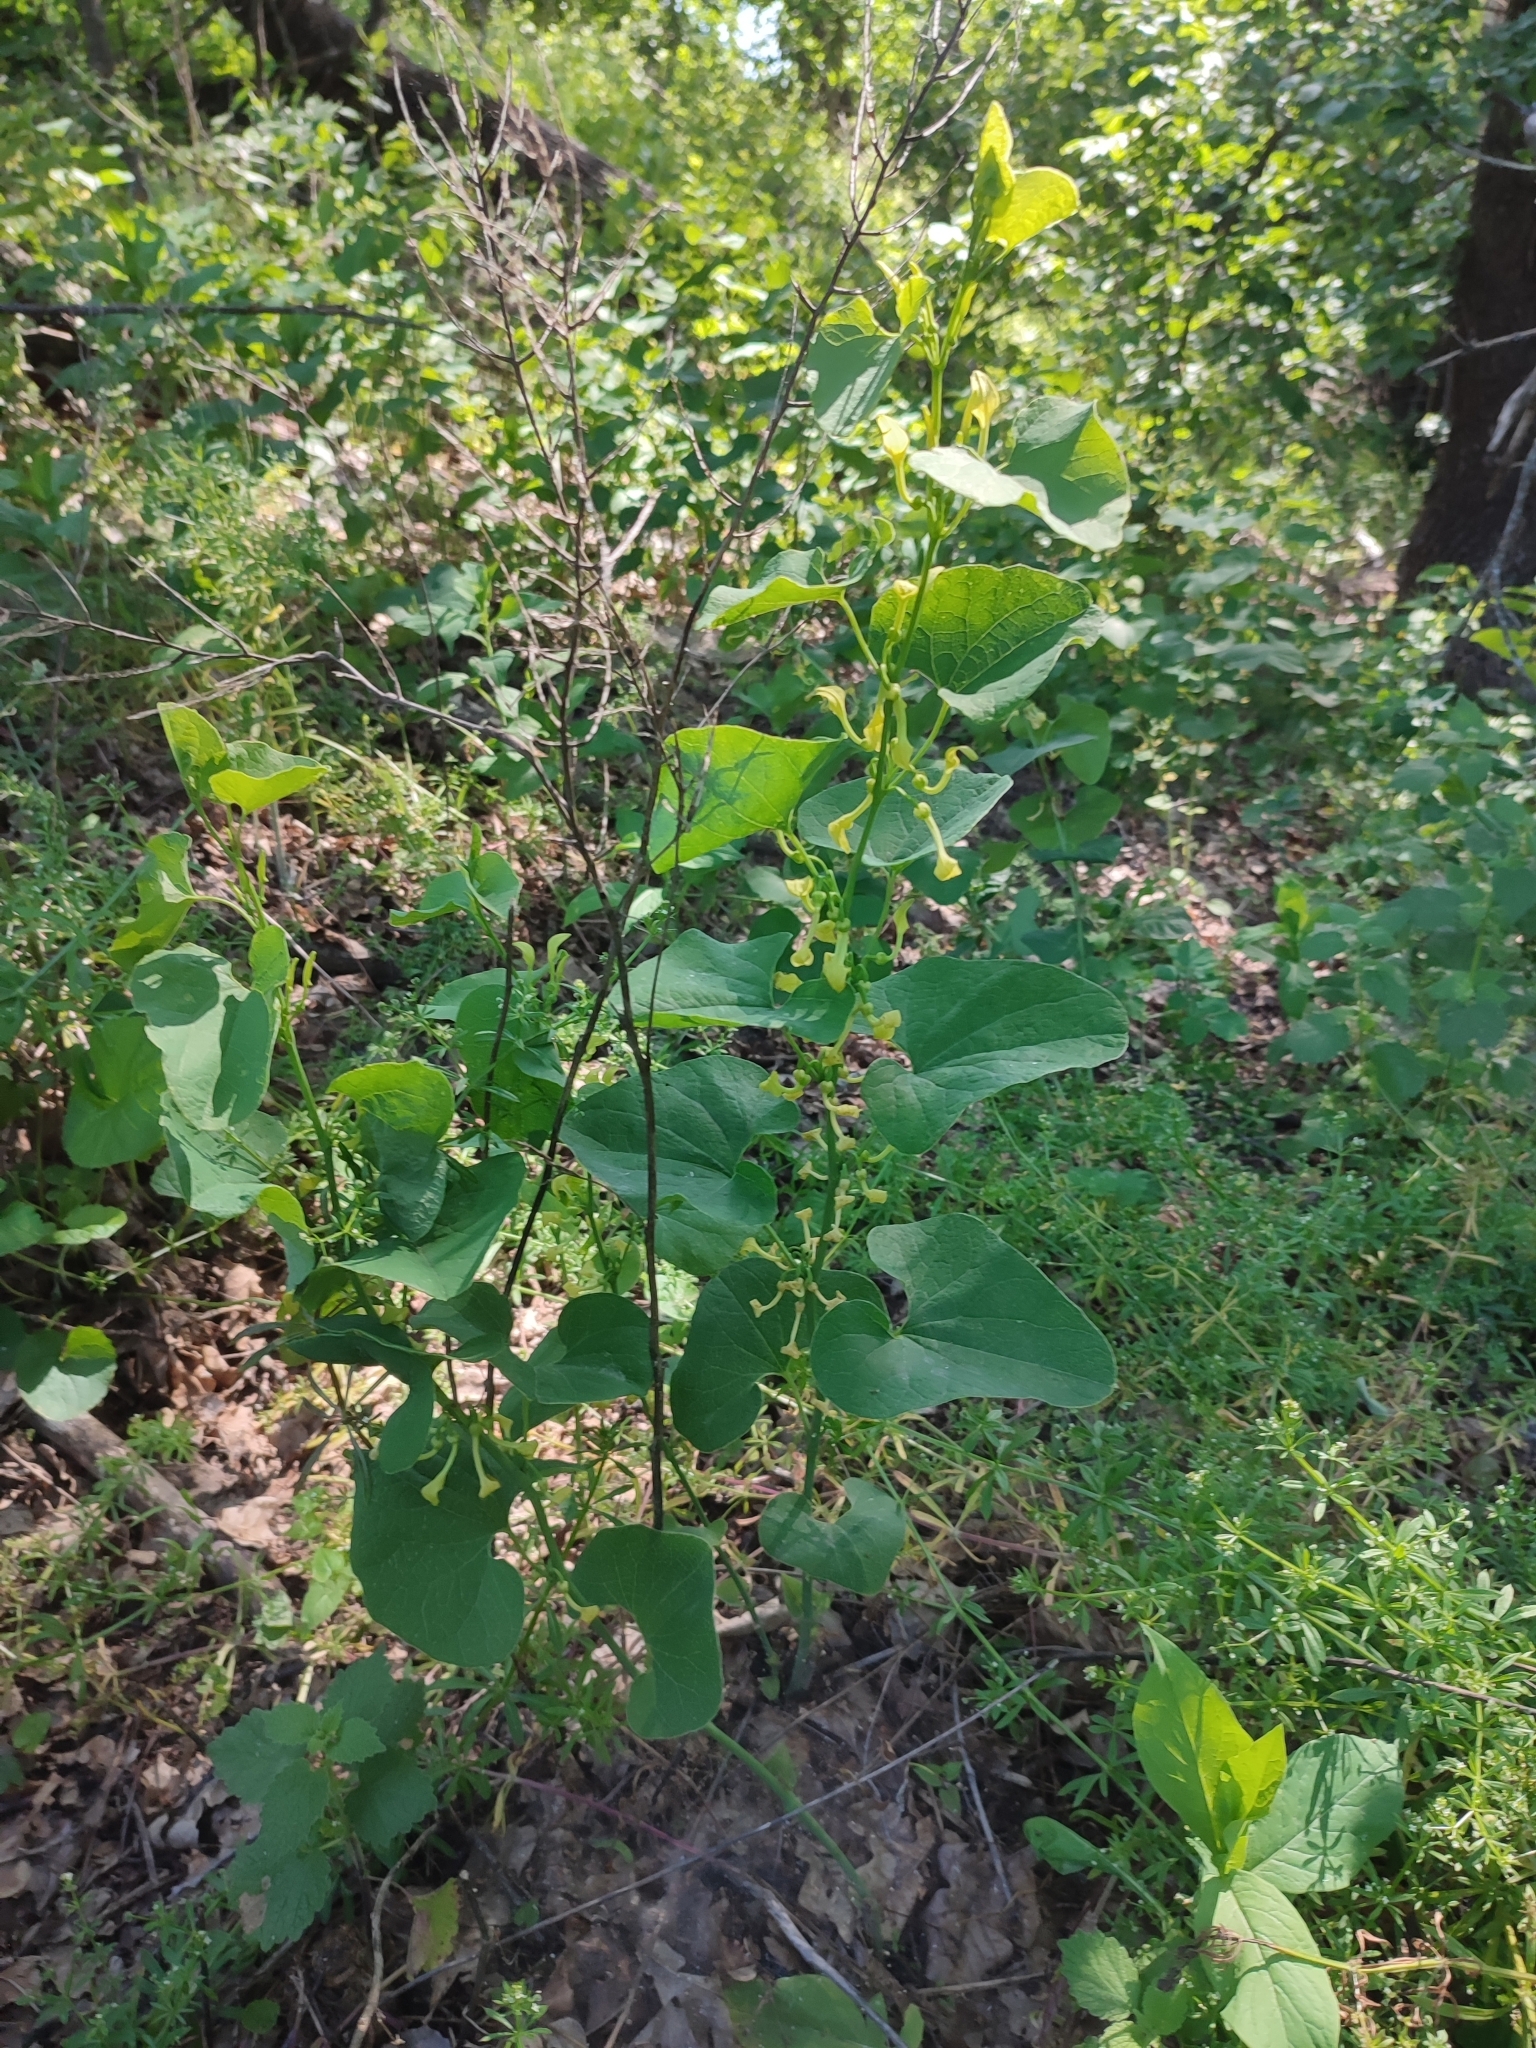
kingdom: Plantae
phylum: Tracheophyta
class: Magnoliopsida
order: Piperales
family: Aristolochiaceae
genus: Aristolochia
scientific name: Aristolochia clematitis
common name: Birthwort
